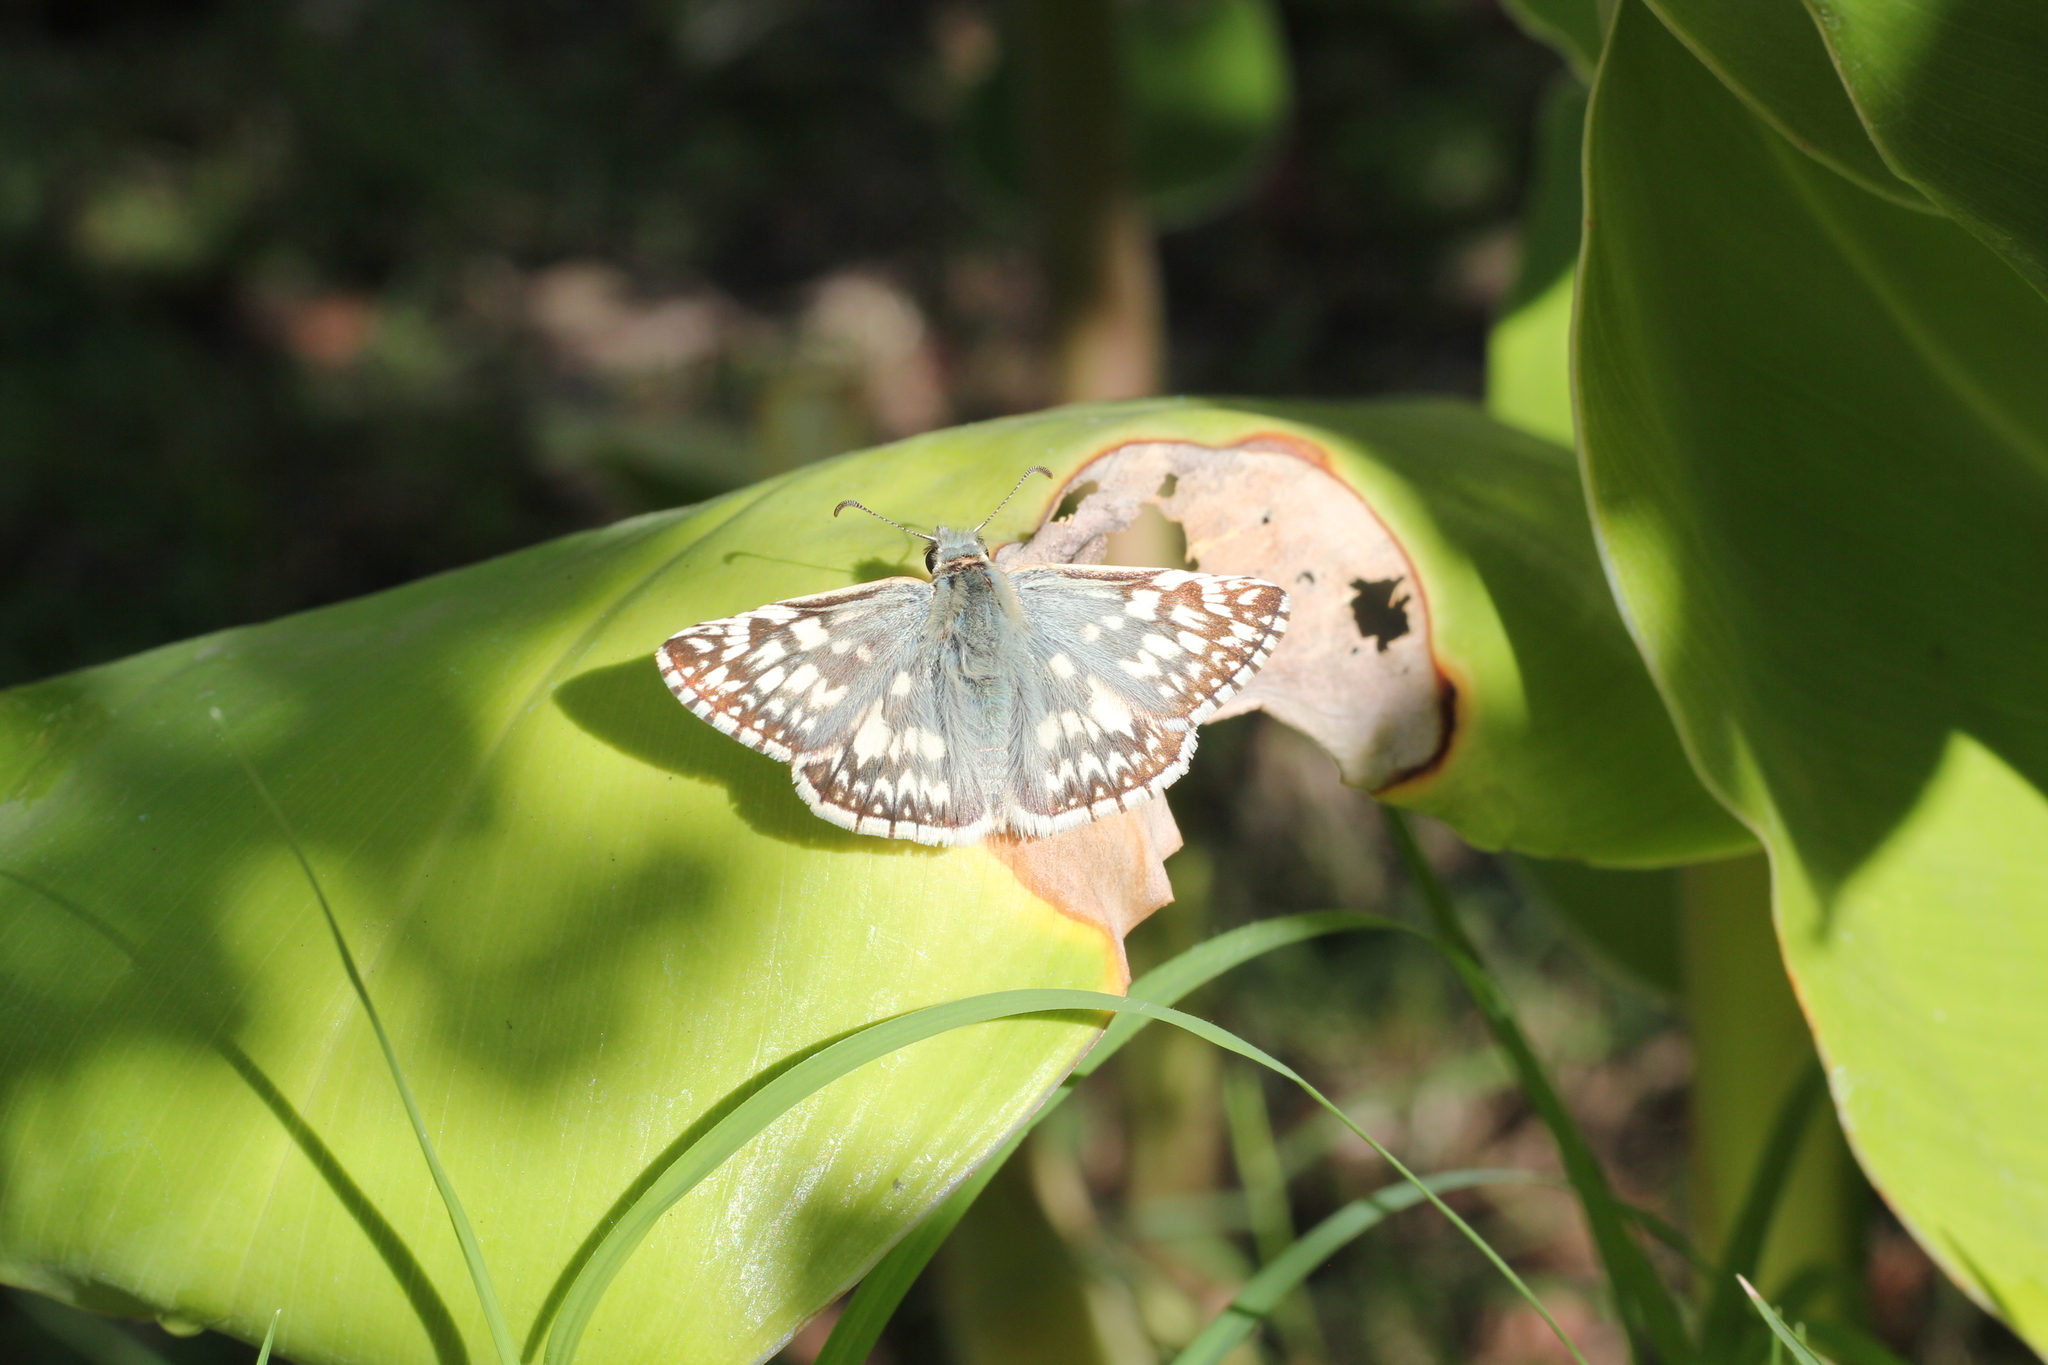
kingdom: Animalia
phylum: Arthropoda
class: Insecta
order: Lepidoptera
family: Hesperiidae
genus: Heliopetes
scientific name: Heliopetes americanus
